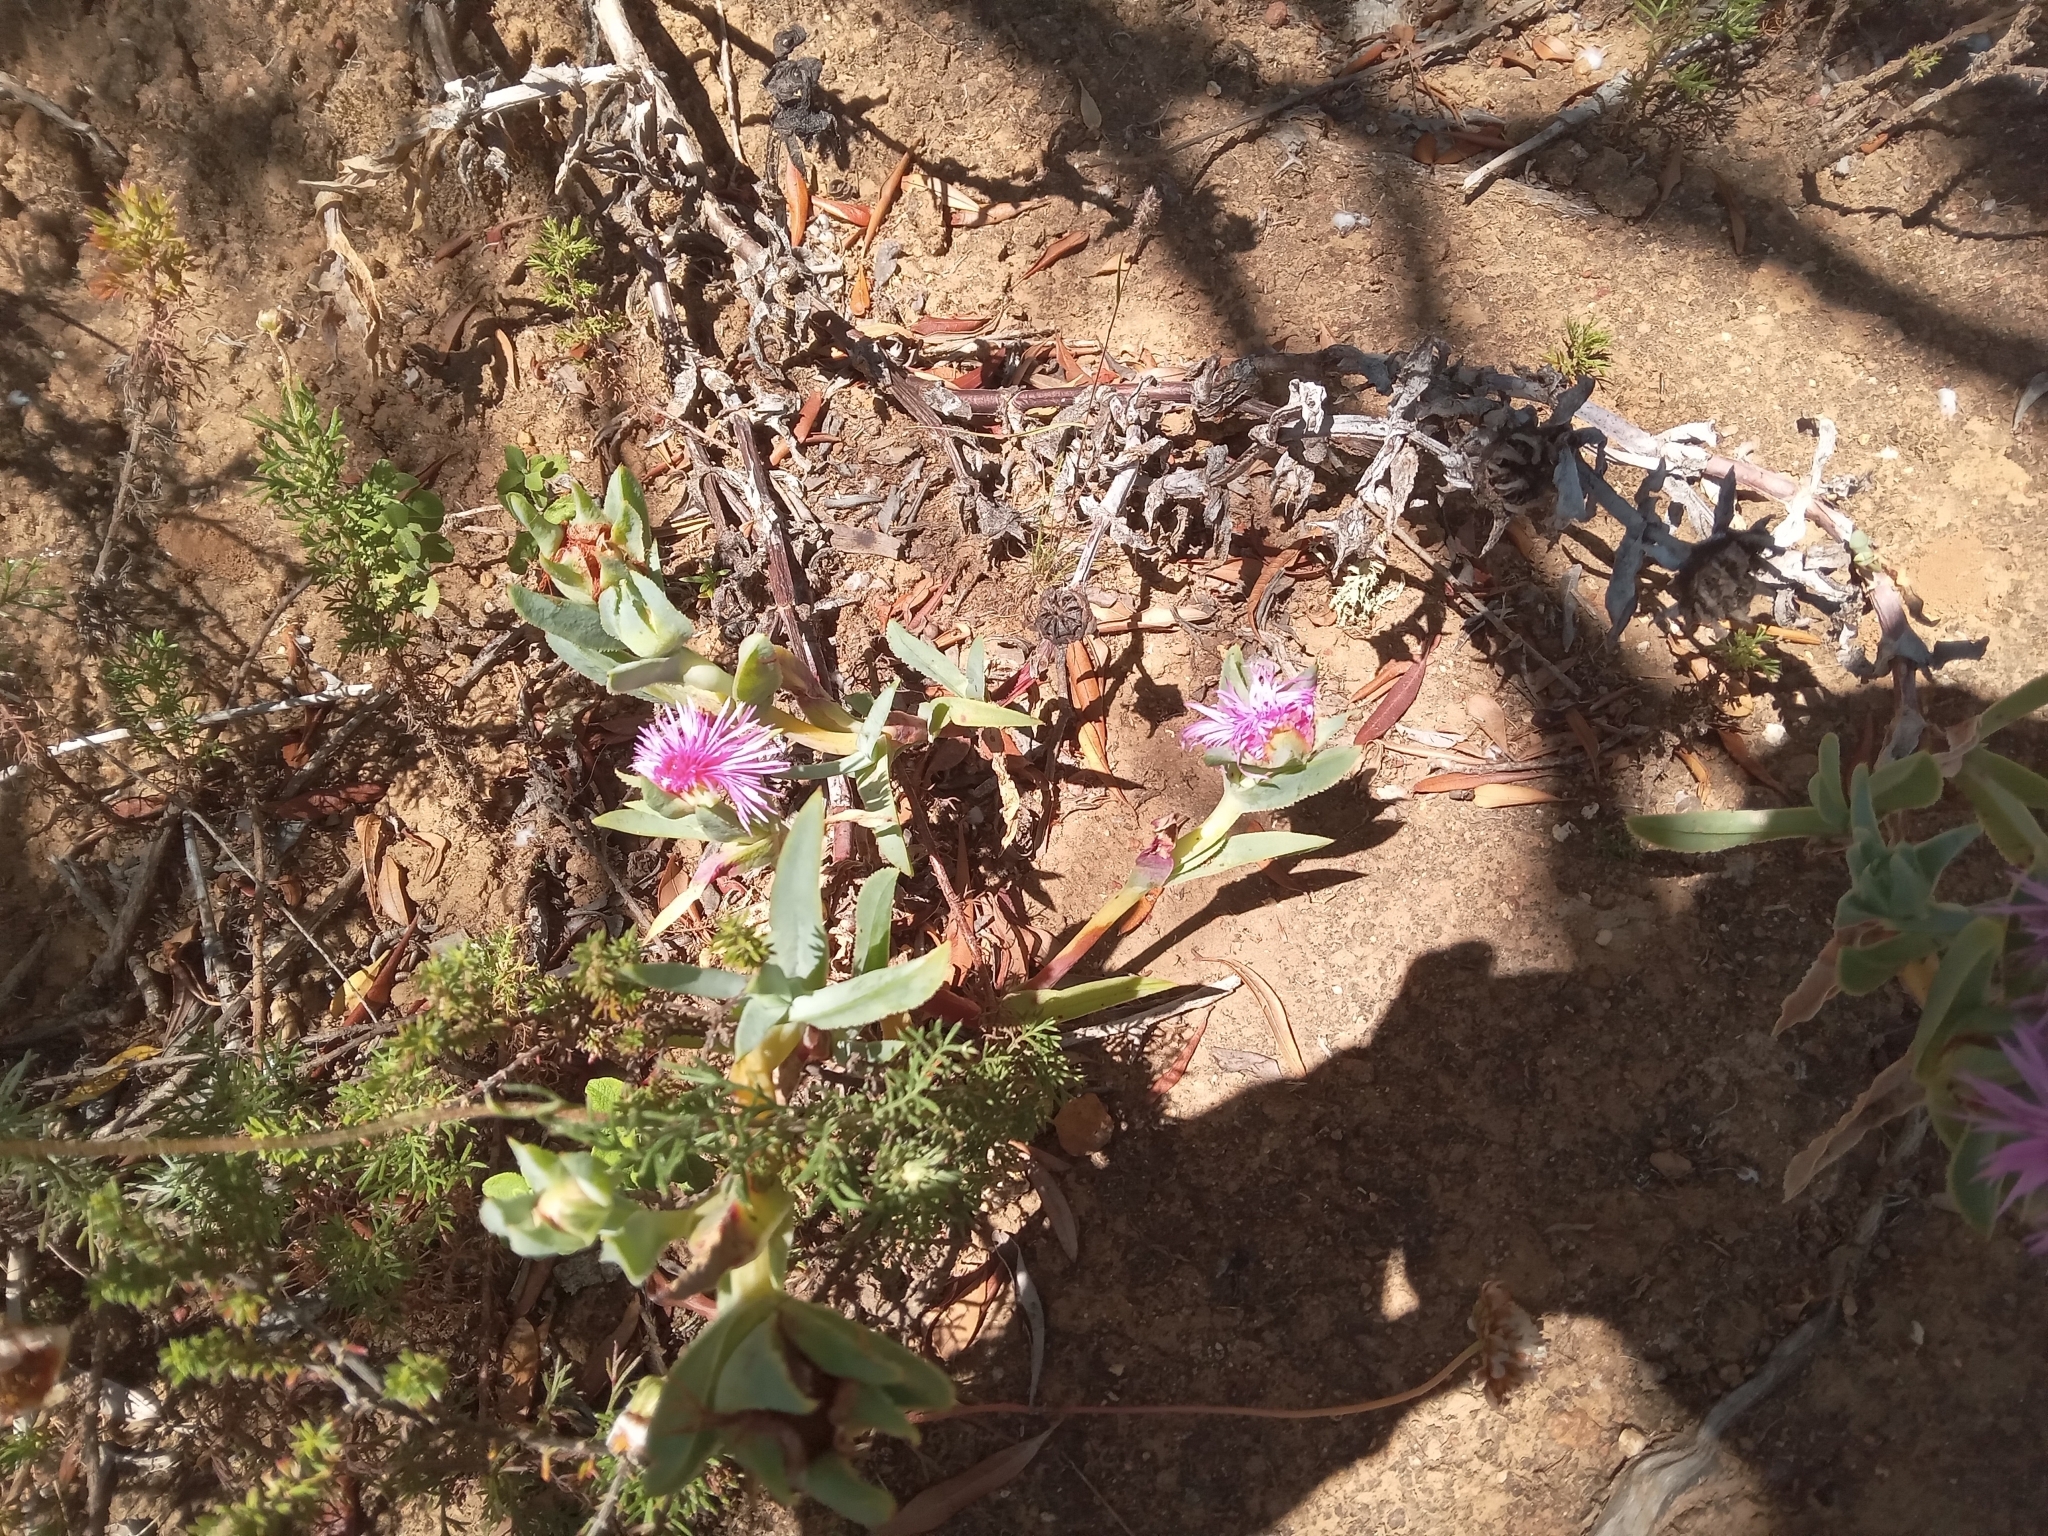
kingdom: Plantae
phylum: Tracheophyta
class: Magnoliopsida
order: Caryophyllales
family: Aizoaceae
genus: Erepsia
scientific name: Erepsia lacera
